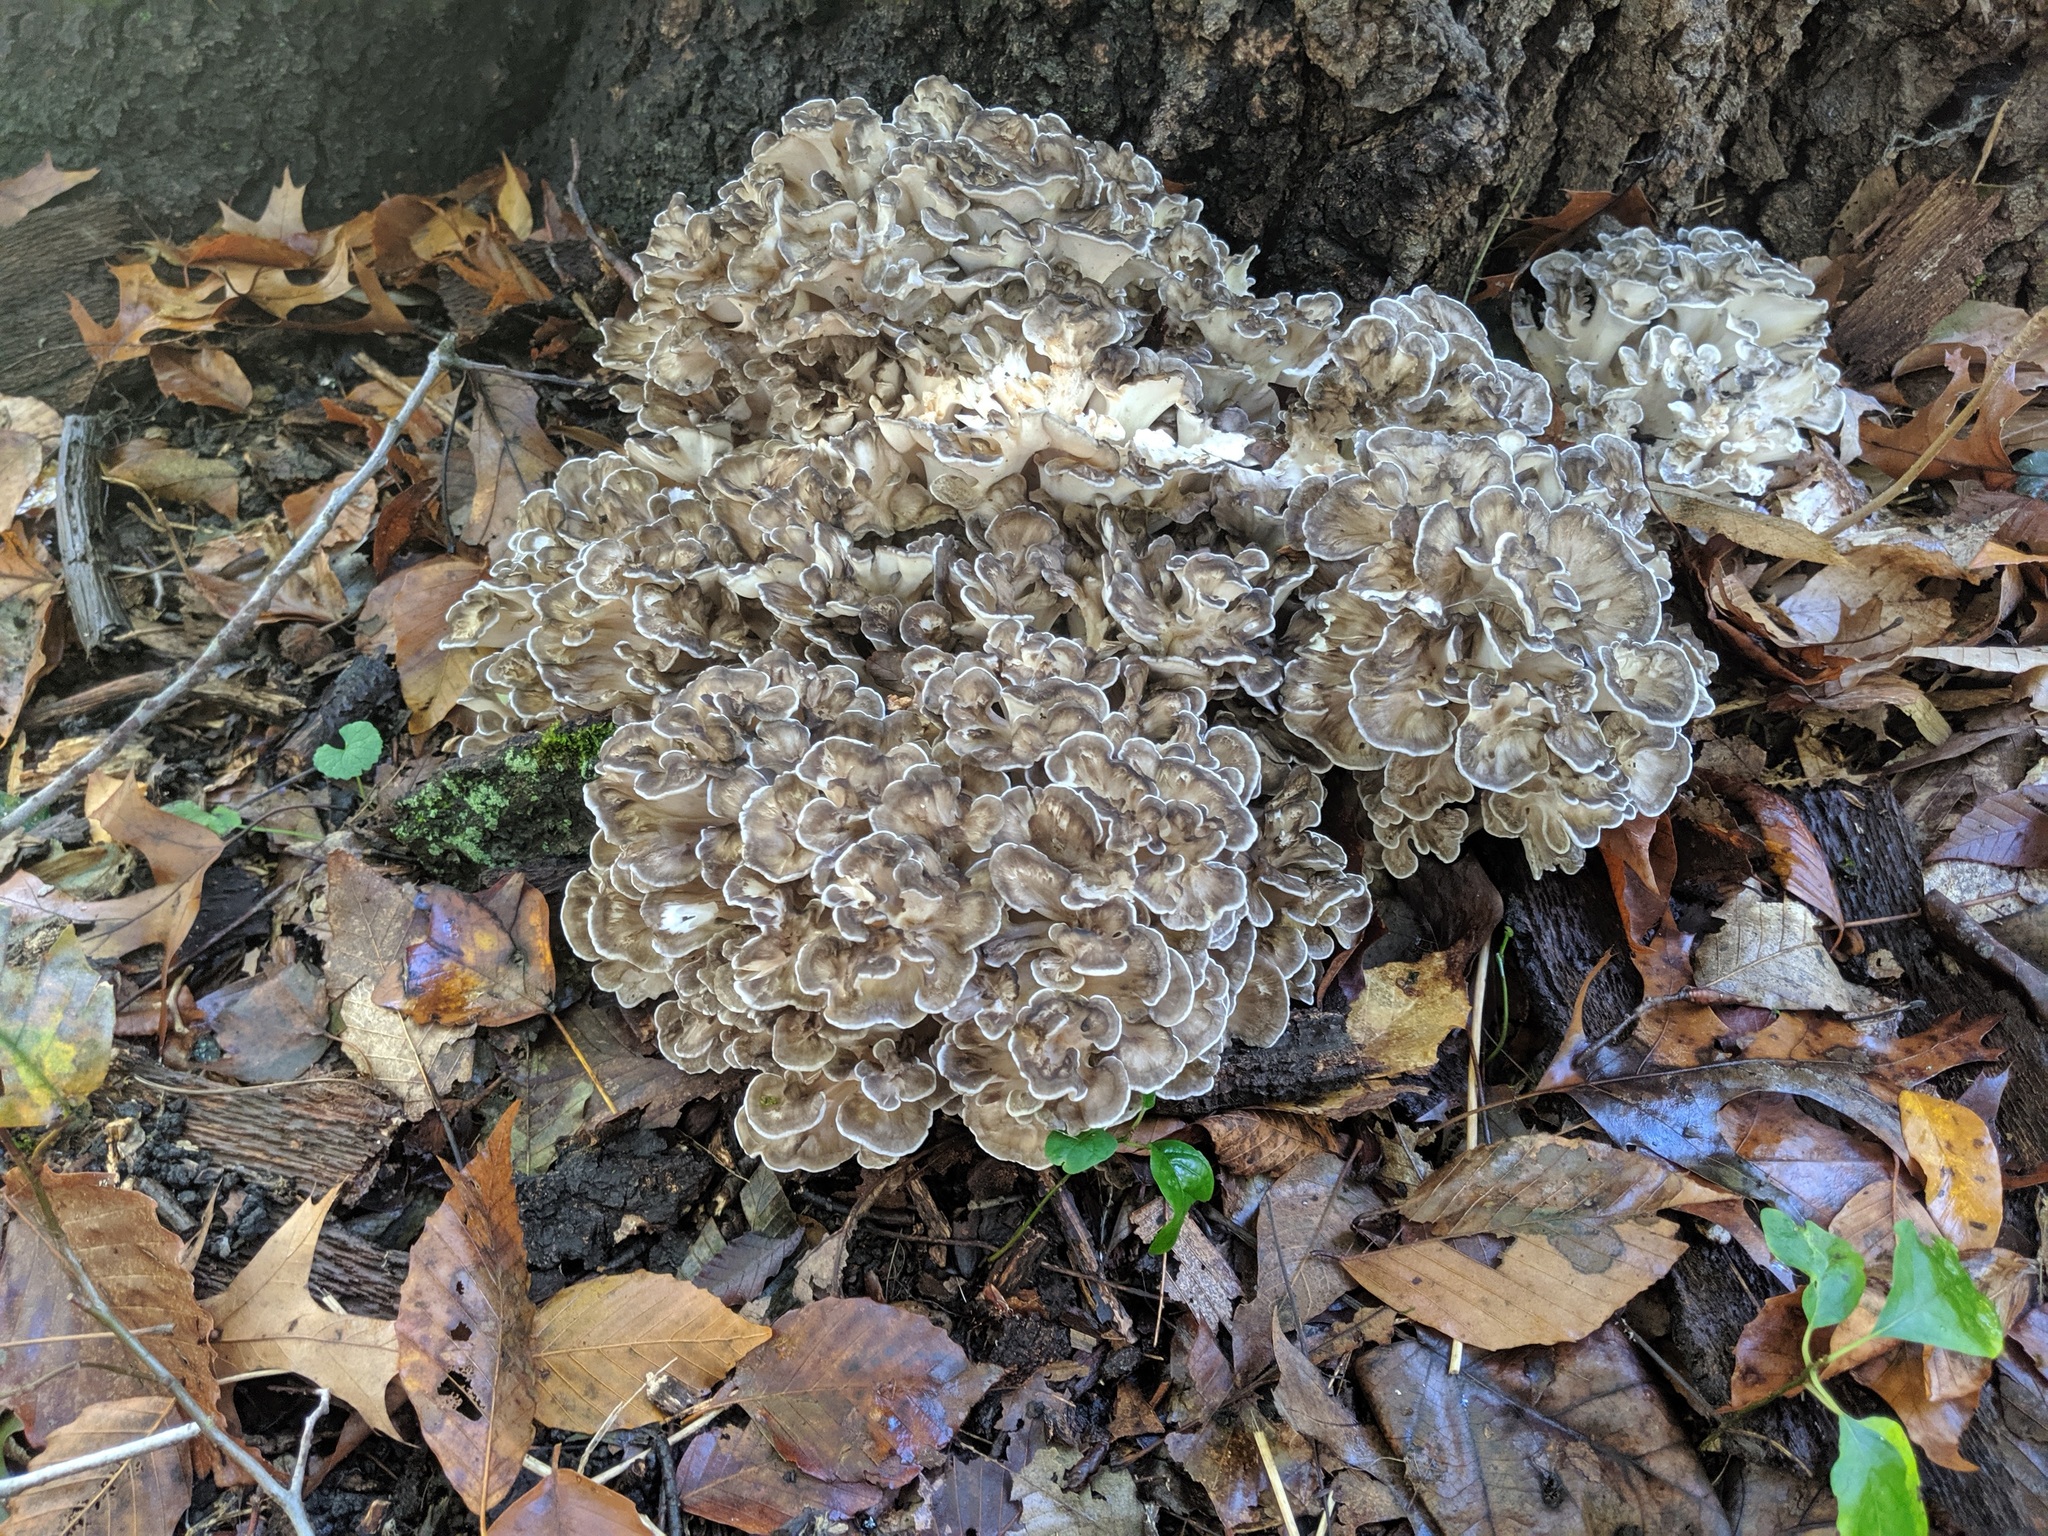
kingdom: Fungi
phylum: Basidiomycota
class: Agaricomycetes
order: Polyporales
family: Grifolaceae
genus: Grifola
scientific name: Grifola frondosa
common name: Hen of the woods
